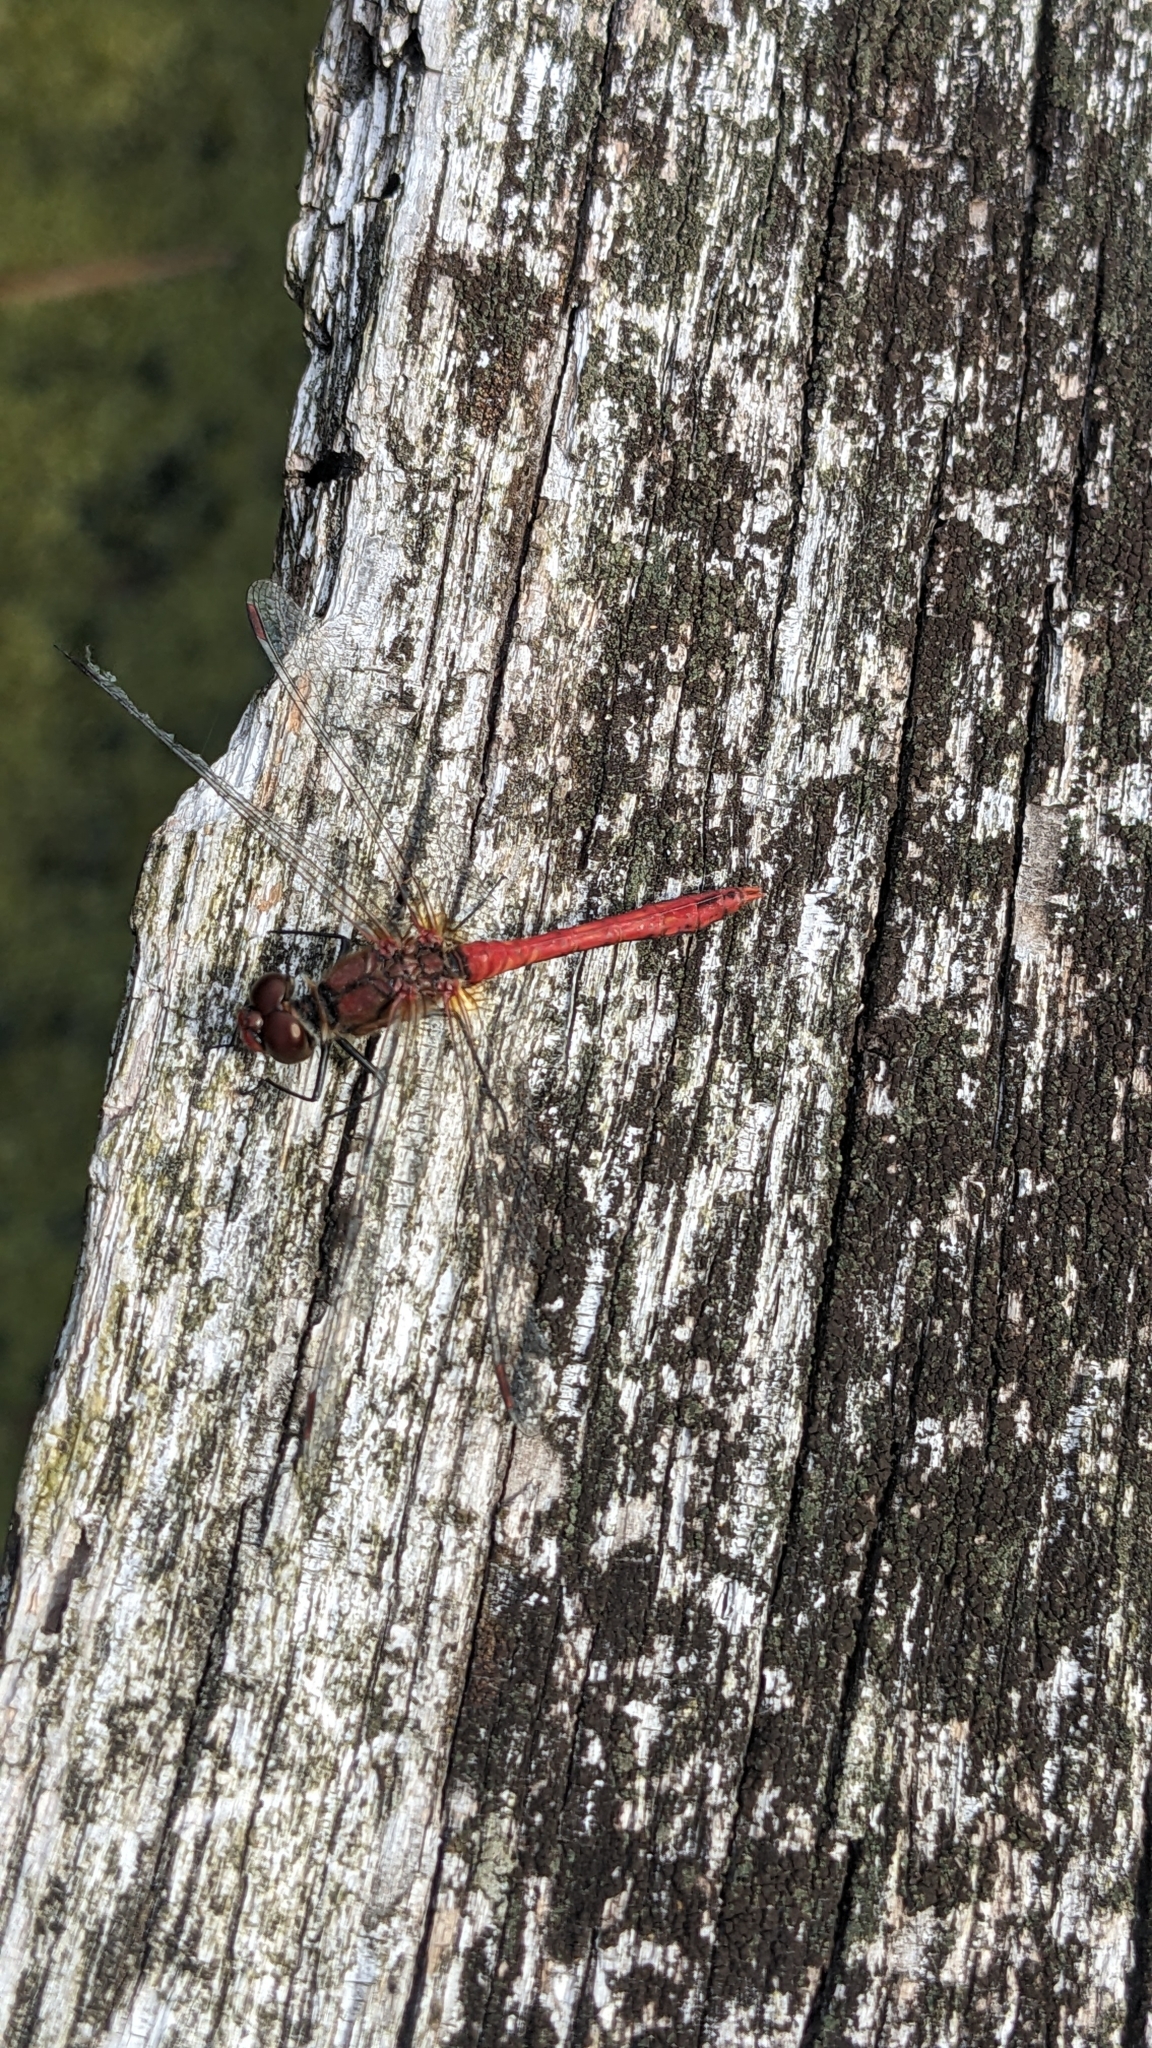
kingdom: Animalia
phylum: Arthropoda
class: Insecta
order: Odonata
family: Libellulidae
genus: Sympetrum
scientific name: Sympetrum sanguineum
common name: Ruddy darter
